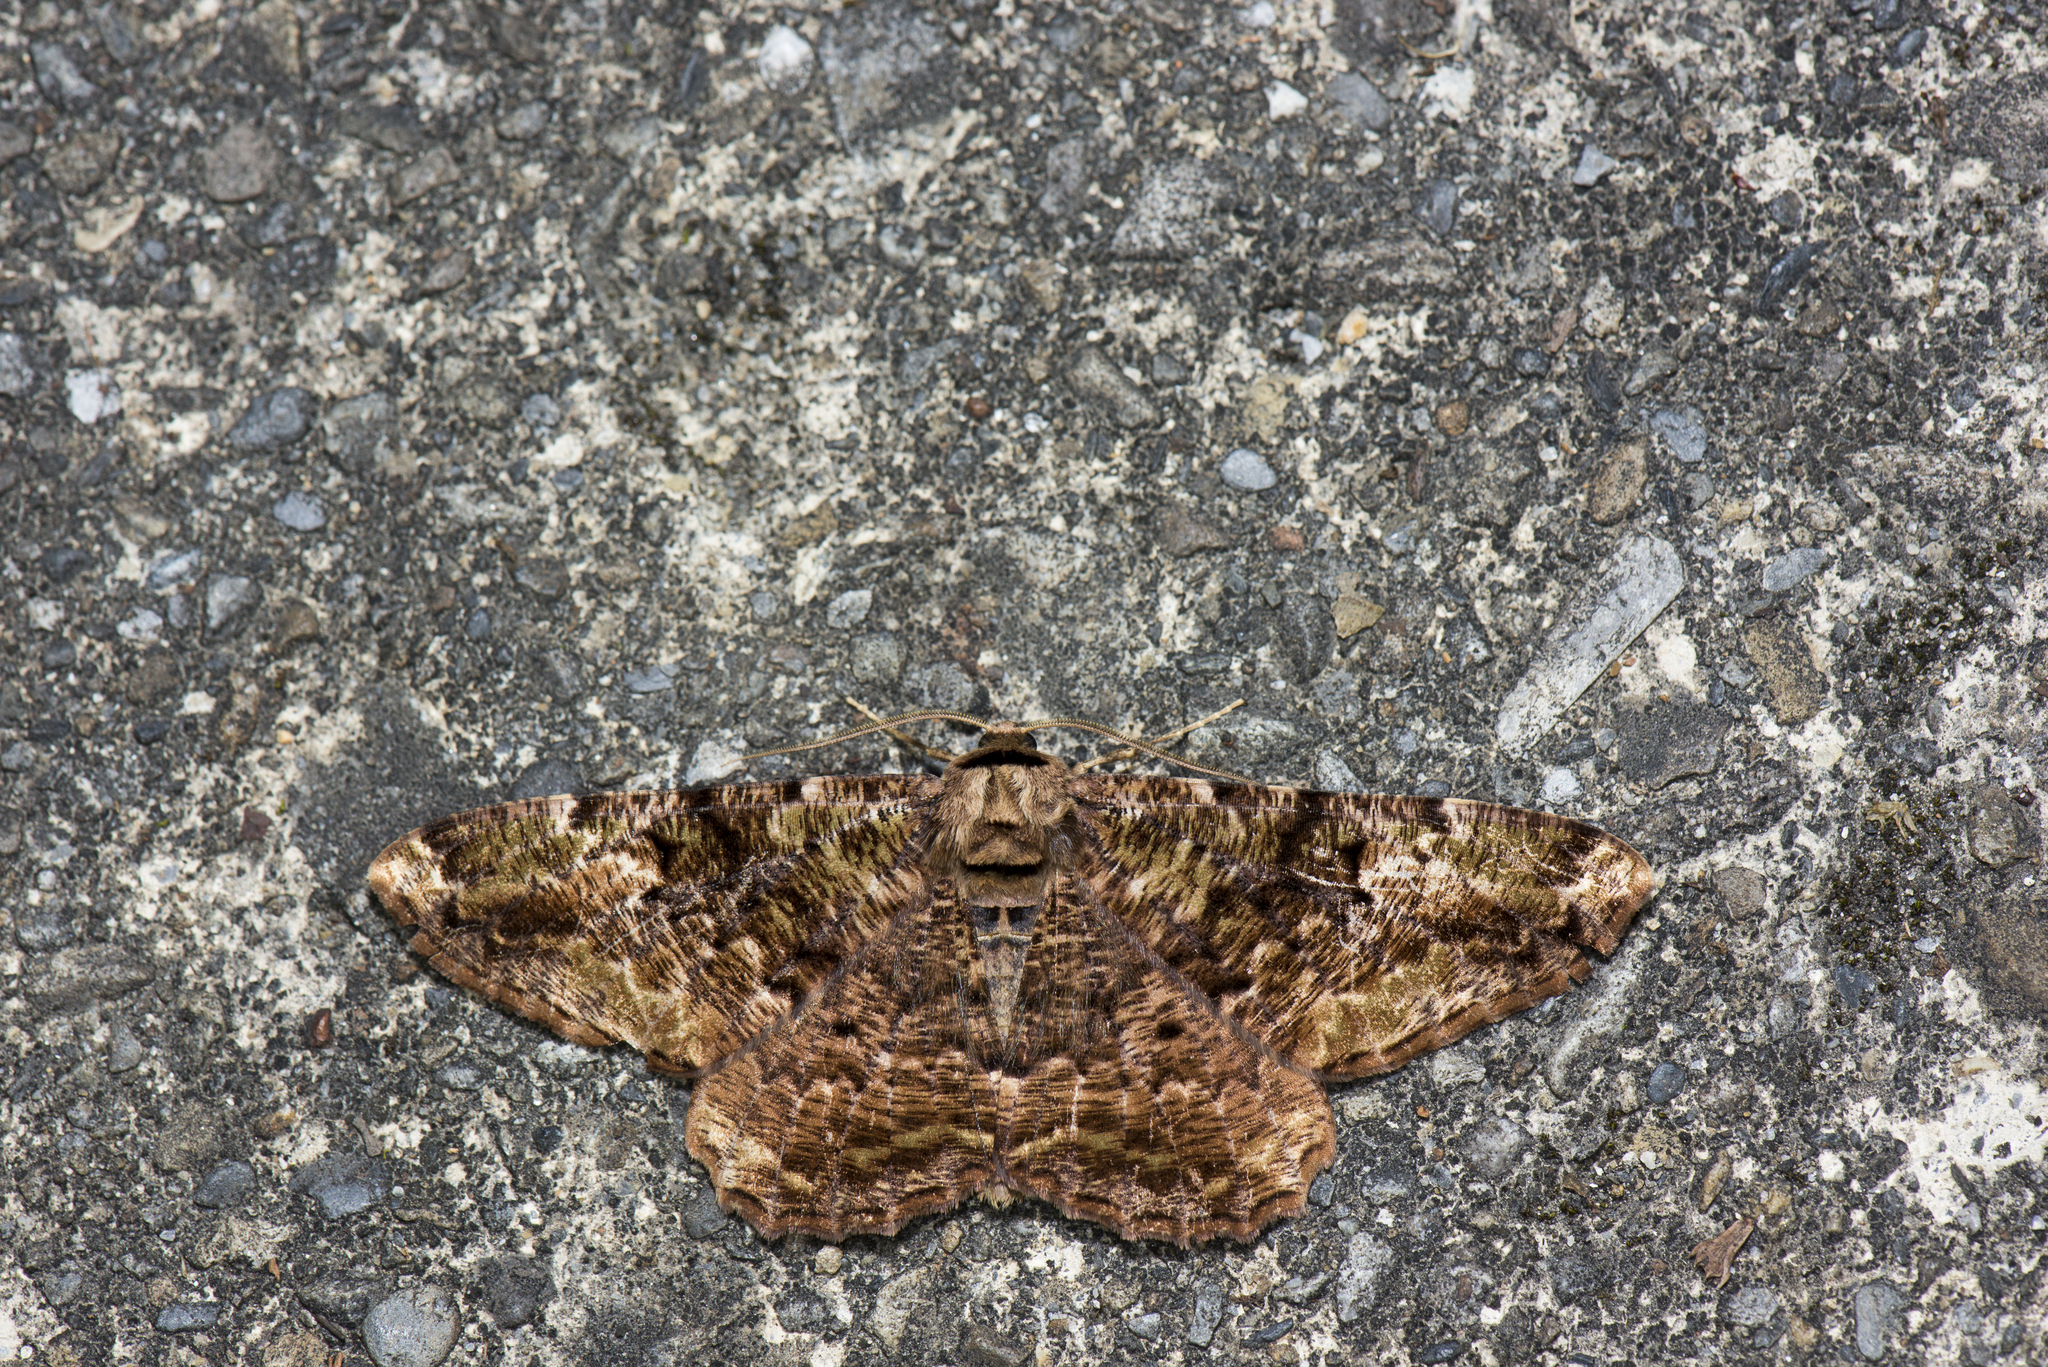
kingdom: Animalia
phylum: Arthropoda
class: Insecta
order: Lepidoptera
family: Geometridae
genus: Blepharoctenucha
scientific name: Blepharoctenucha virescens
